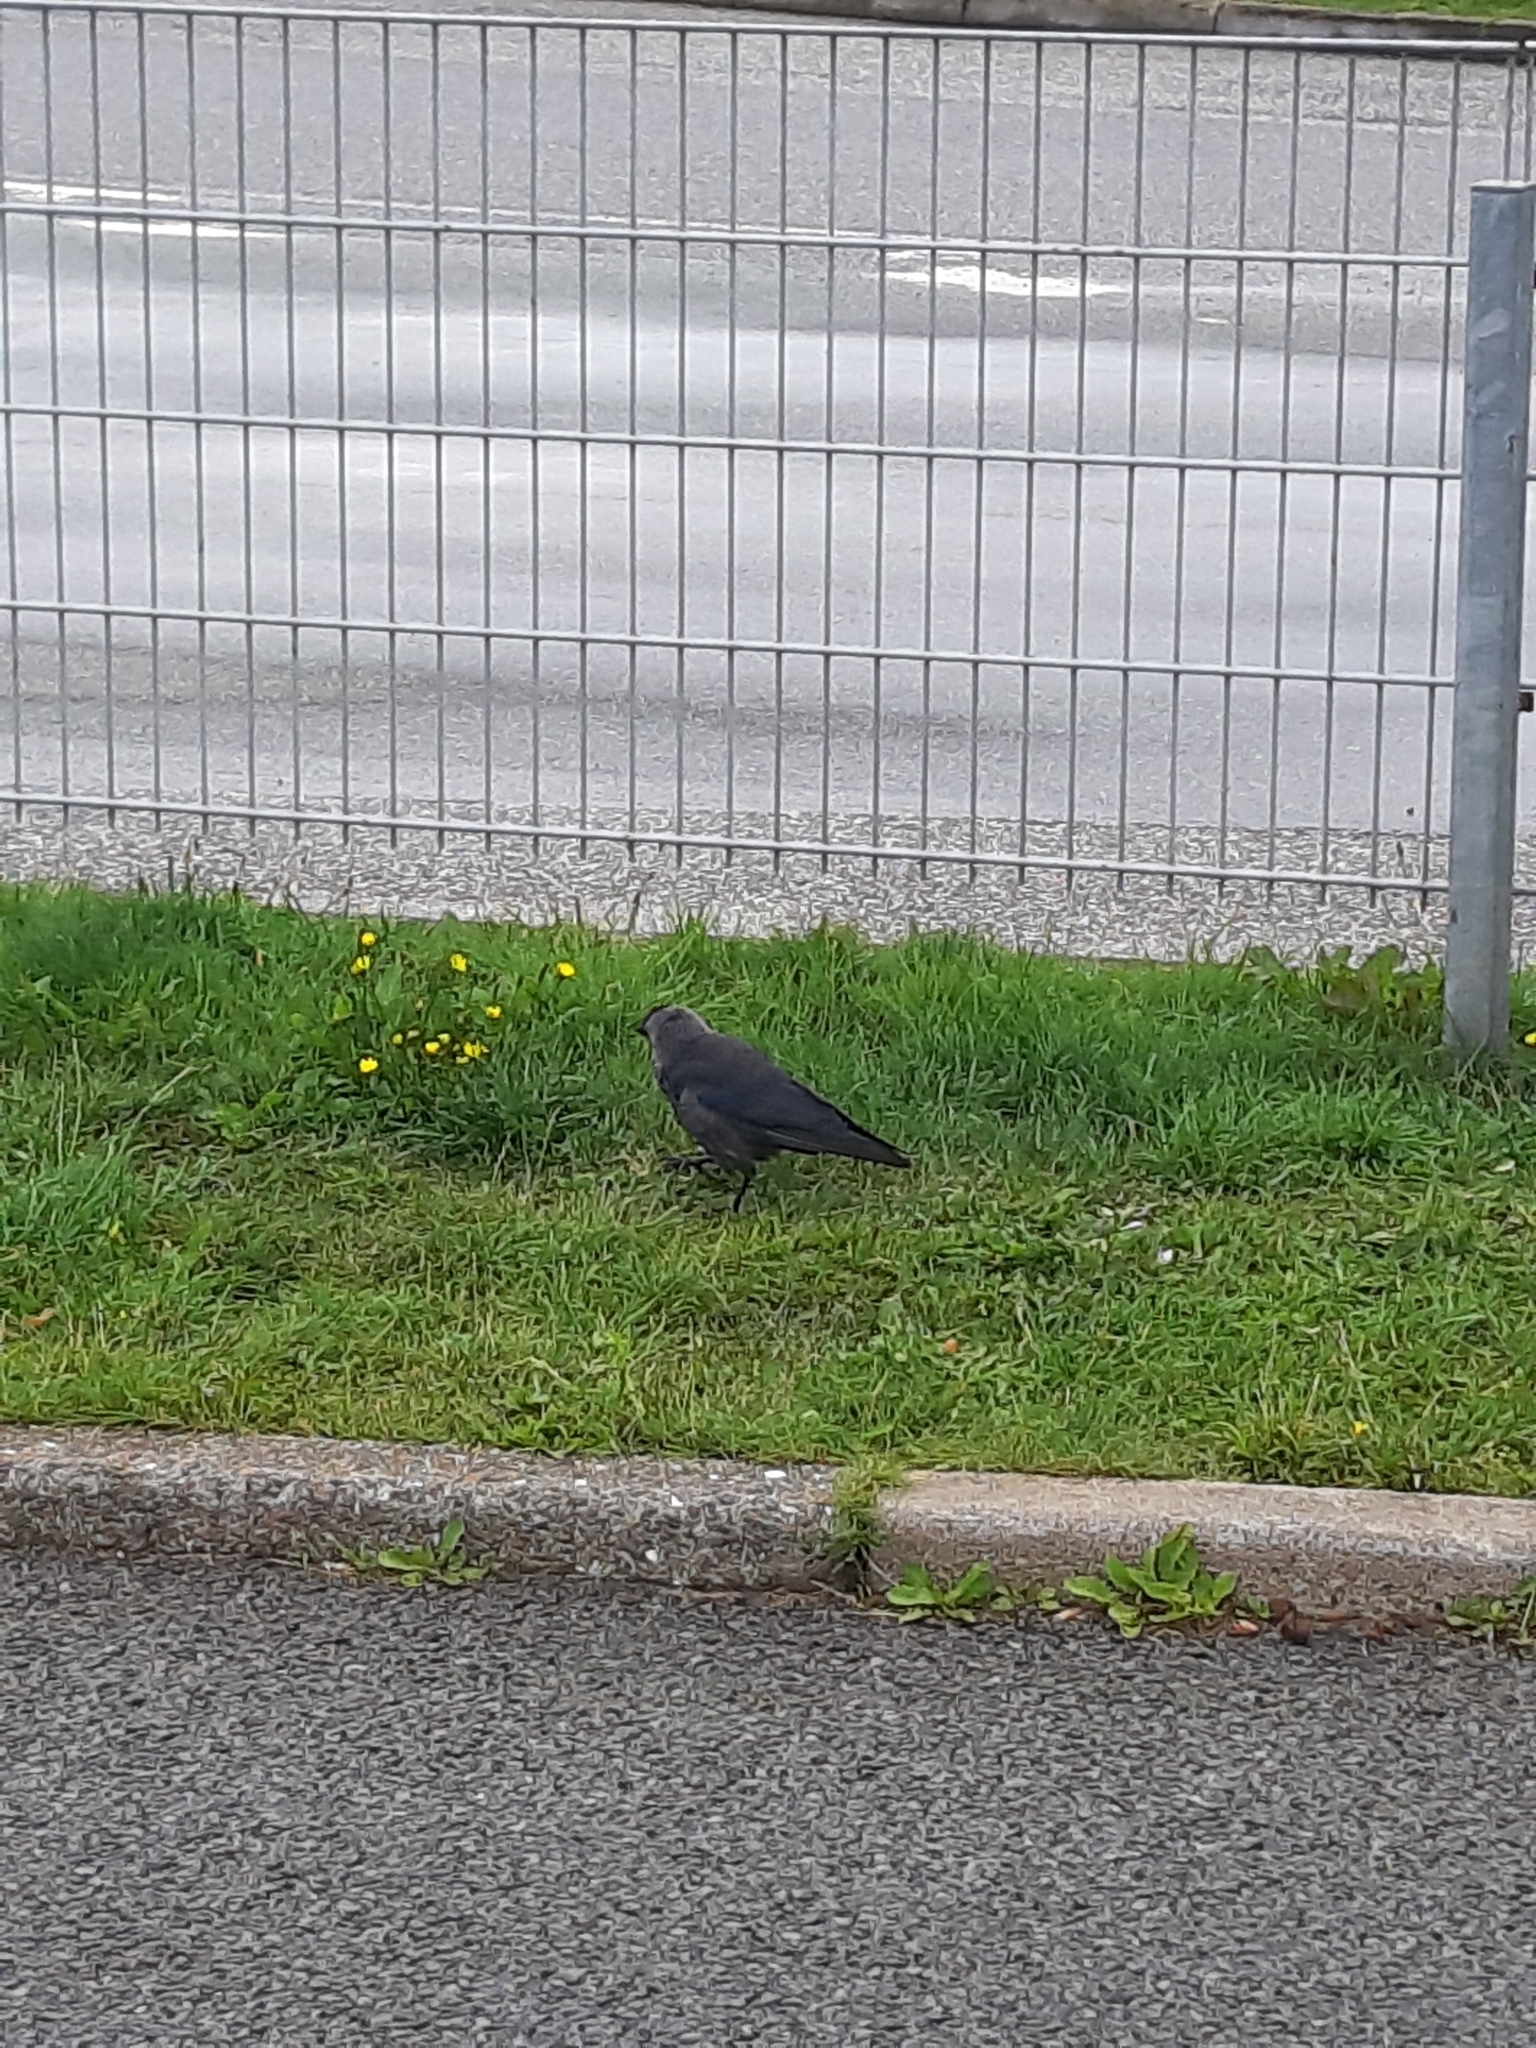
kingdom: Animalia
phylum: Chordata
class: Aves
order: Passeriformes
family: Corvidae
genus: Coloeus
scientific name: Coloeus monedula
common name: Western jackdaw
